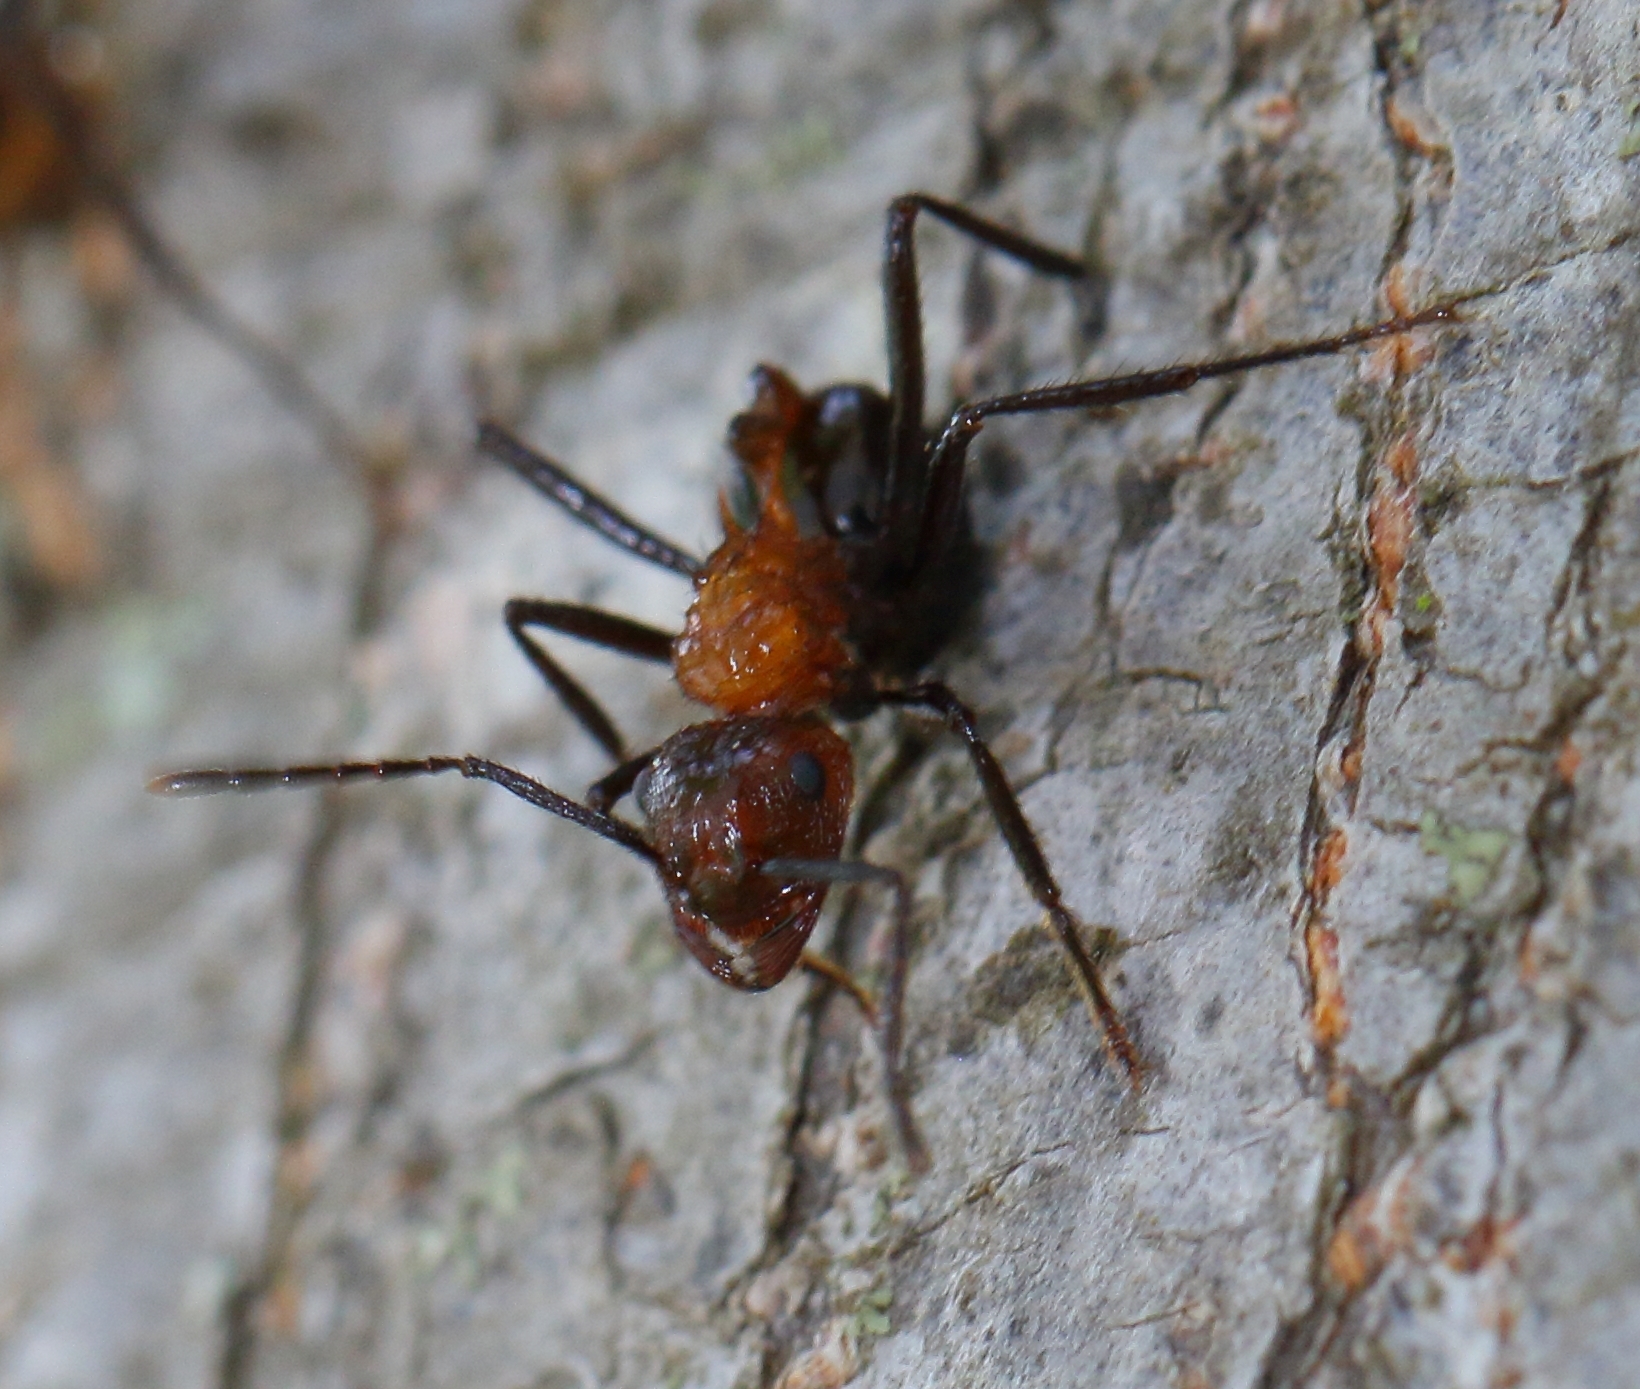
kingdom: Animalia
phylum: Arthropoda
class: Insecta
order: Hymenoptera
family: Formicidae
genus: Myrmicaria
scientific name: Myrmicaria natalensis
